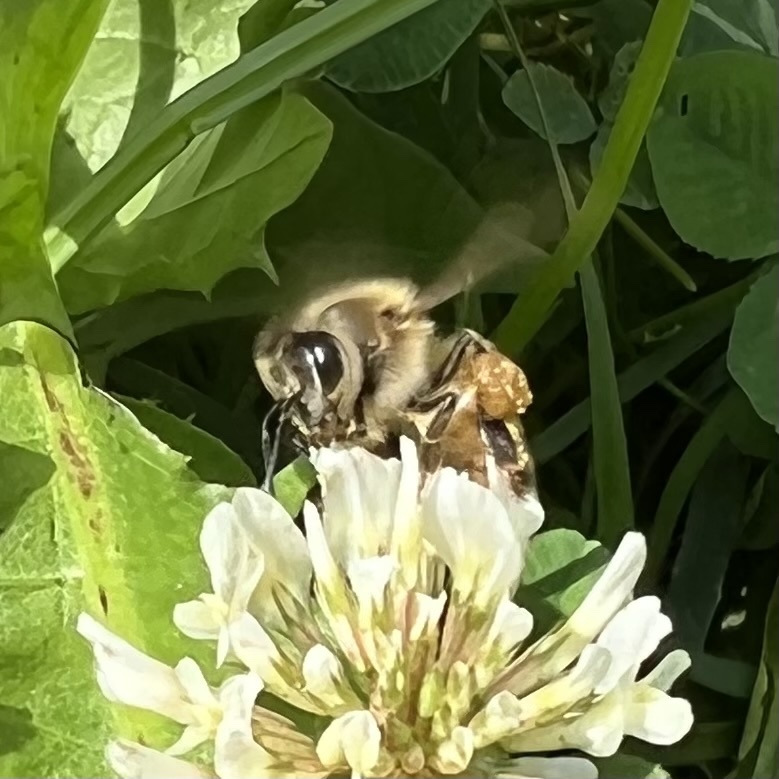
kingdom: Animalia
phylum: Arthropoda
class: Insecta
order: Hymenoptera
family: Apidae
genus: Apis
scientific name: Apis mellifera
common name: Honey bee
